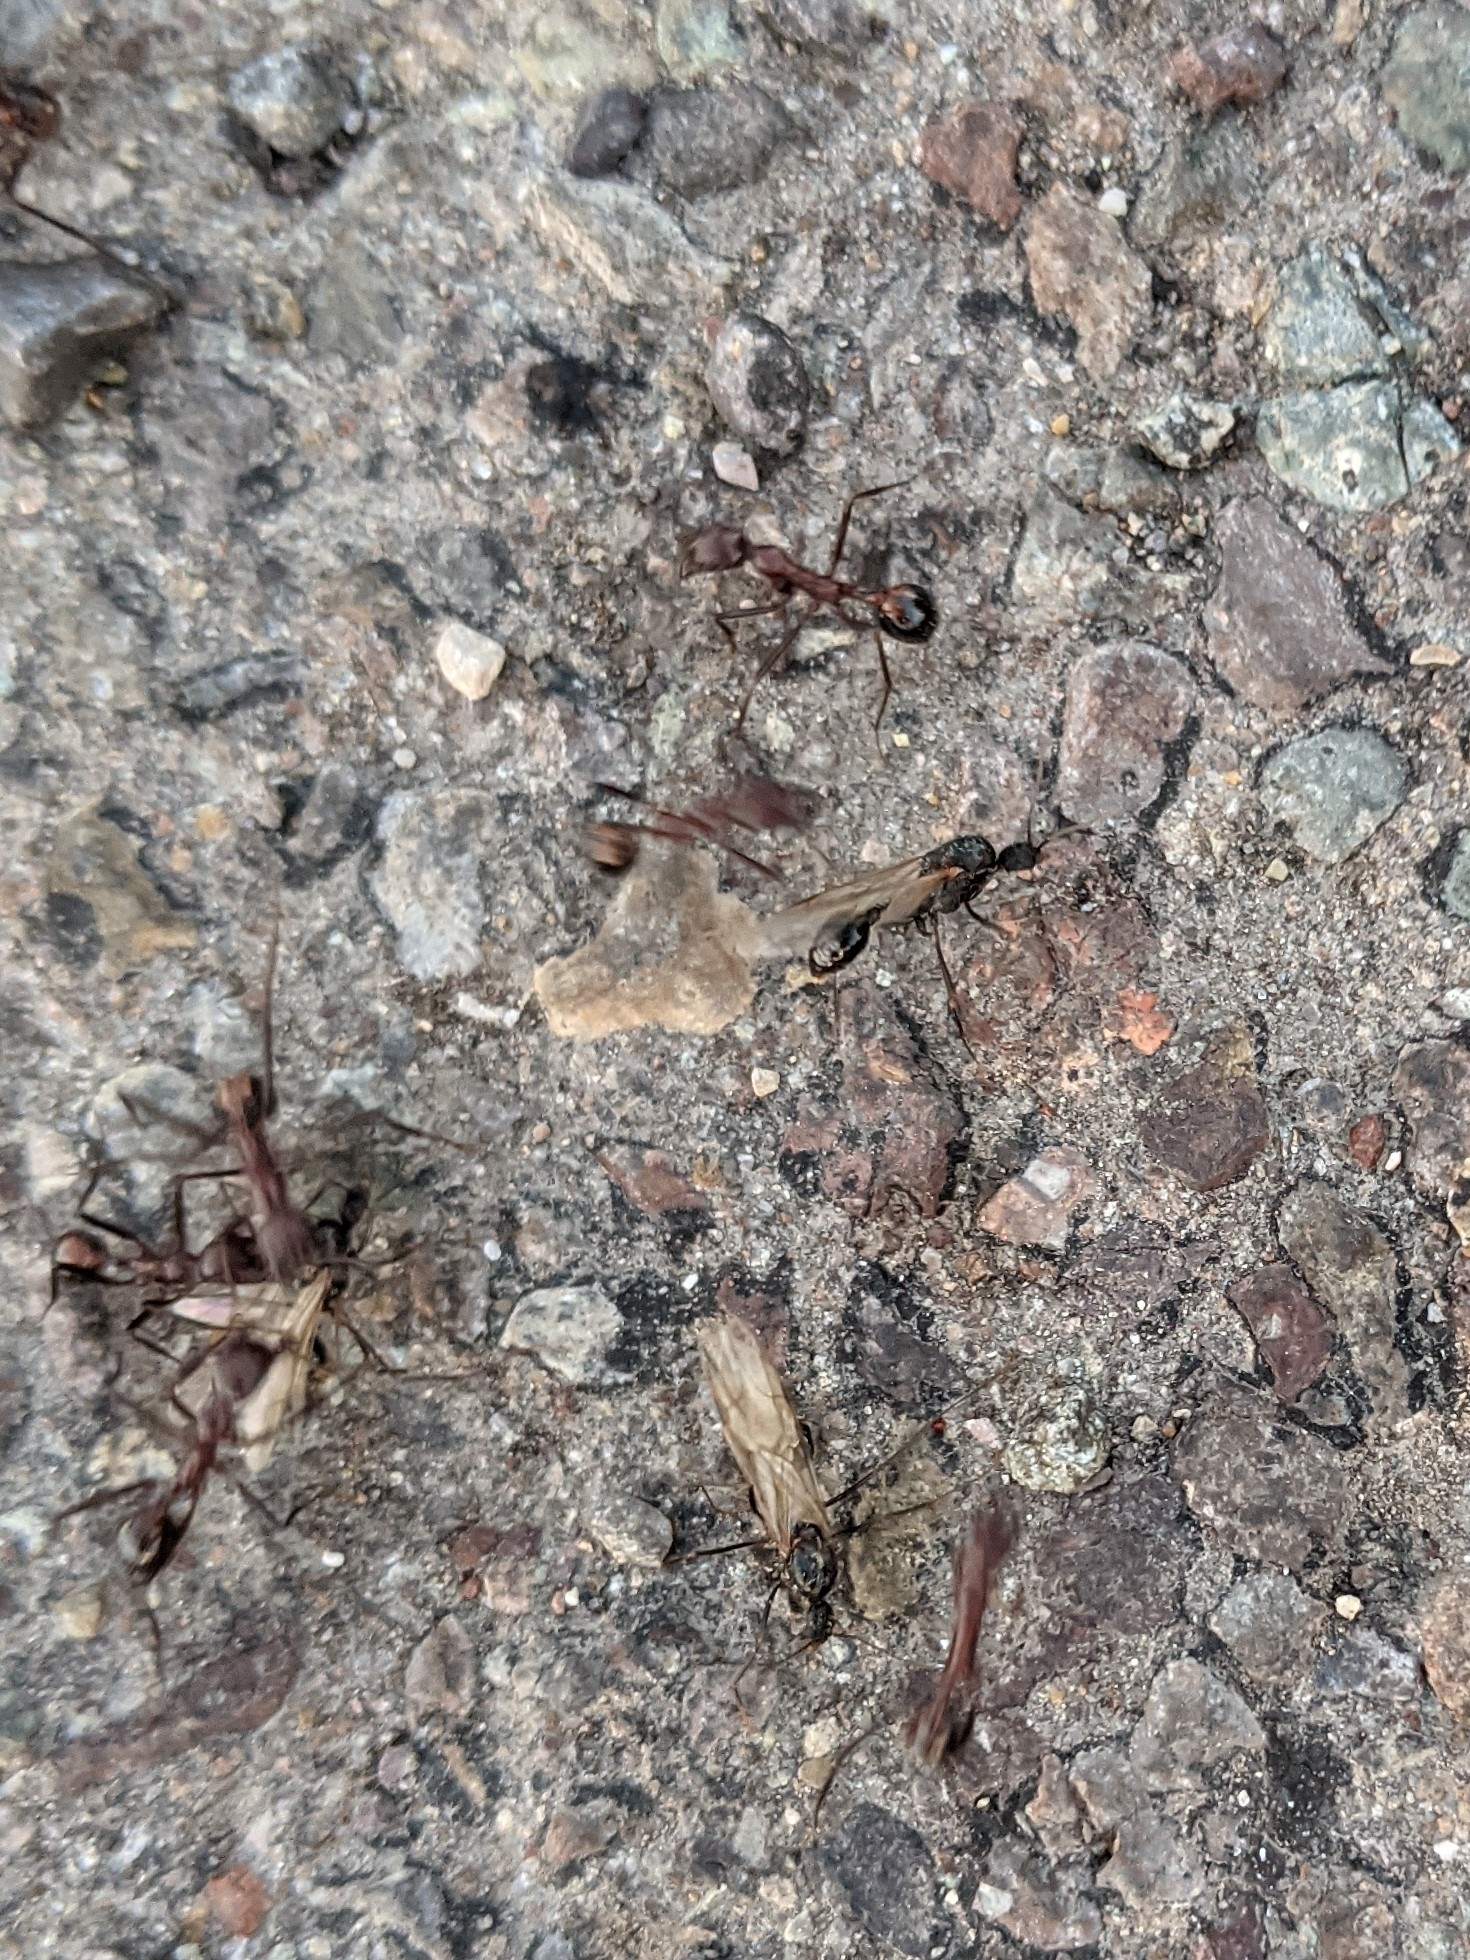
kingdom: Animalia
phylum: Arthropoda
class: Insecta
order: Hymenoptera
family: Formicidae
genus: Novomessor
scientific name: Novomessor cockerelli
